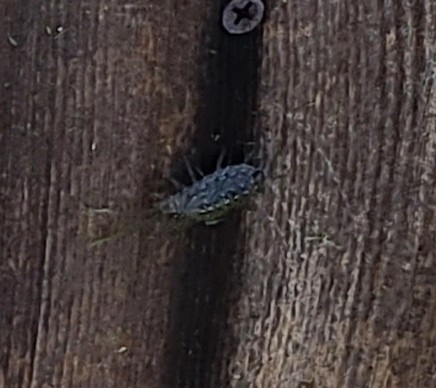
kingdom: Animalia
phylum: Arthropoda
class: Malacostraca
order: Isopoda
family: Ligiidae
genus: Ligia
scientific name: Ligia exotica
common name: Wharf roach
